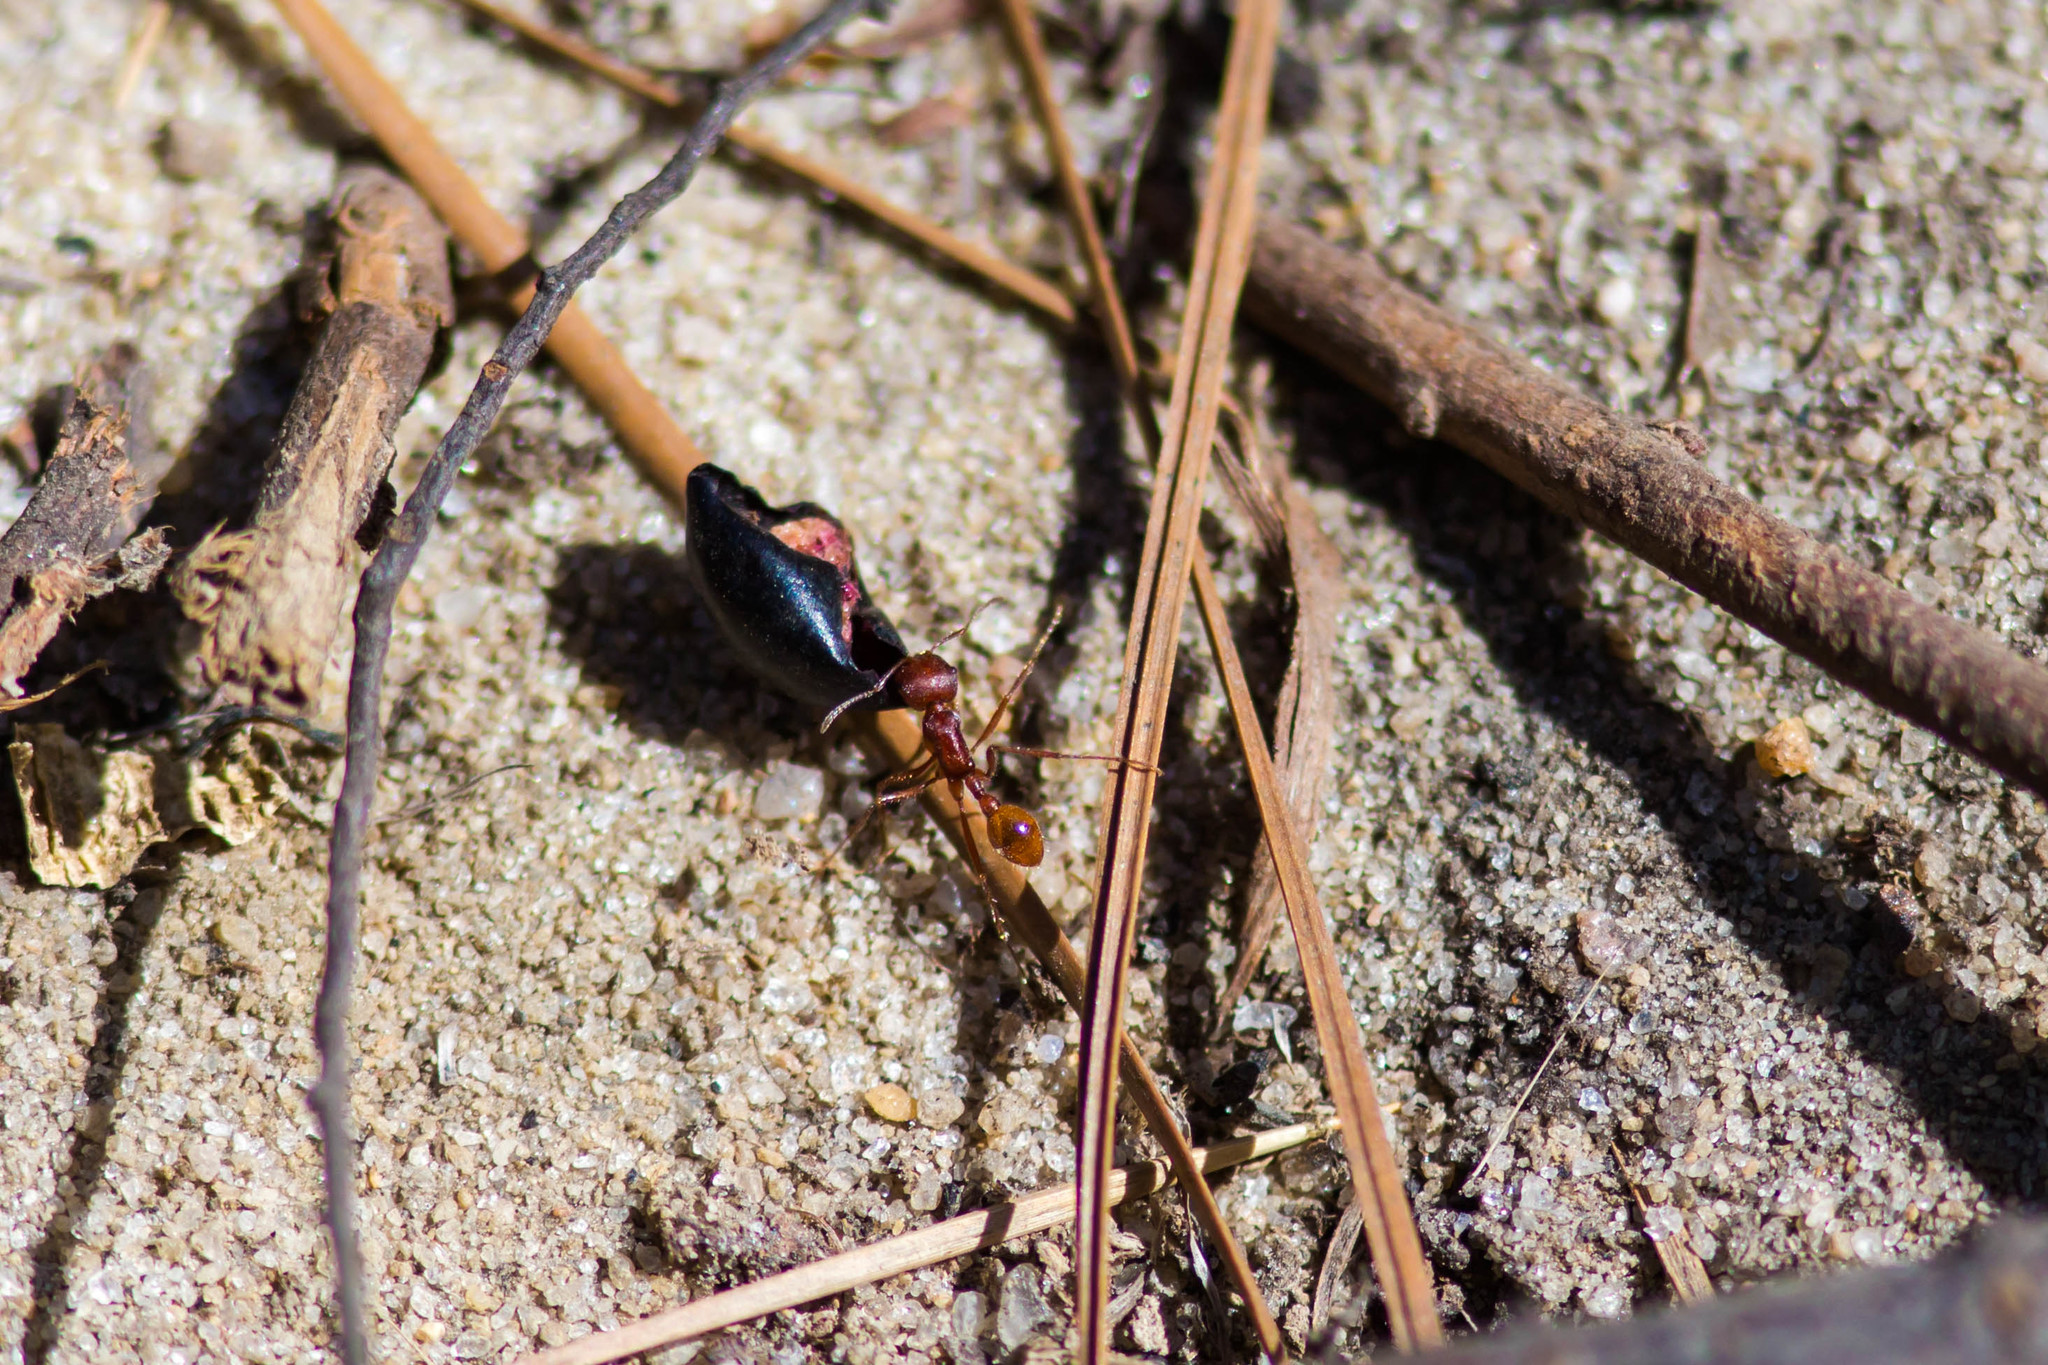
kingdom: Animalia
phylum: Arthropoda
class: Insecta
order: Hymenoptera
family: Formicidae
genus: Pogonomyrmex
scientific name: Pogonomyrmex badius
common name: Florida harvester ant
